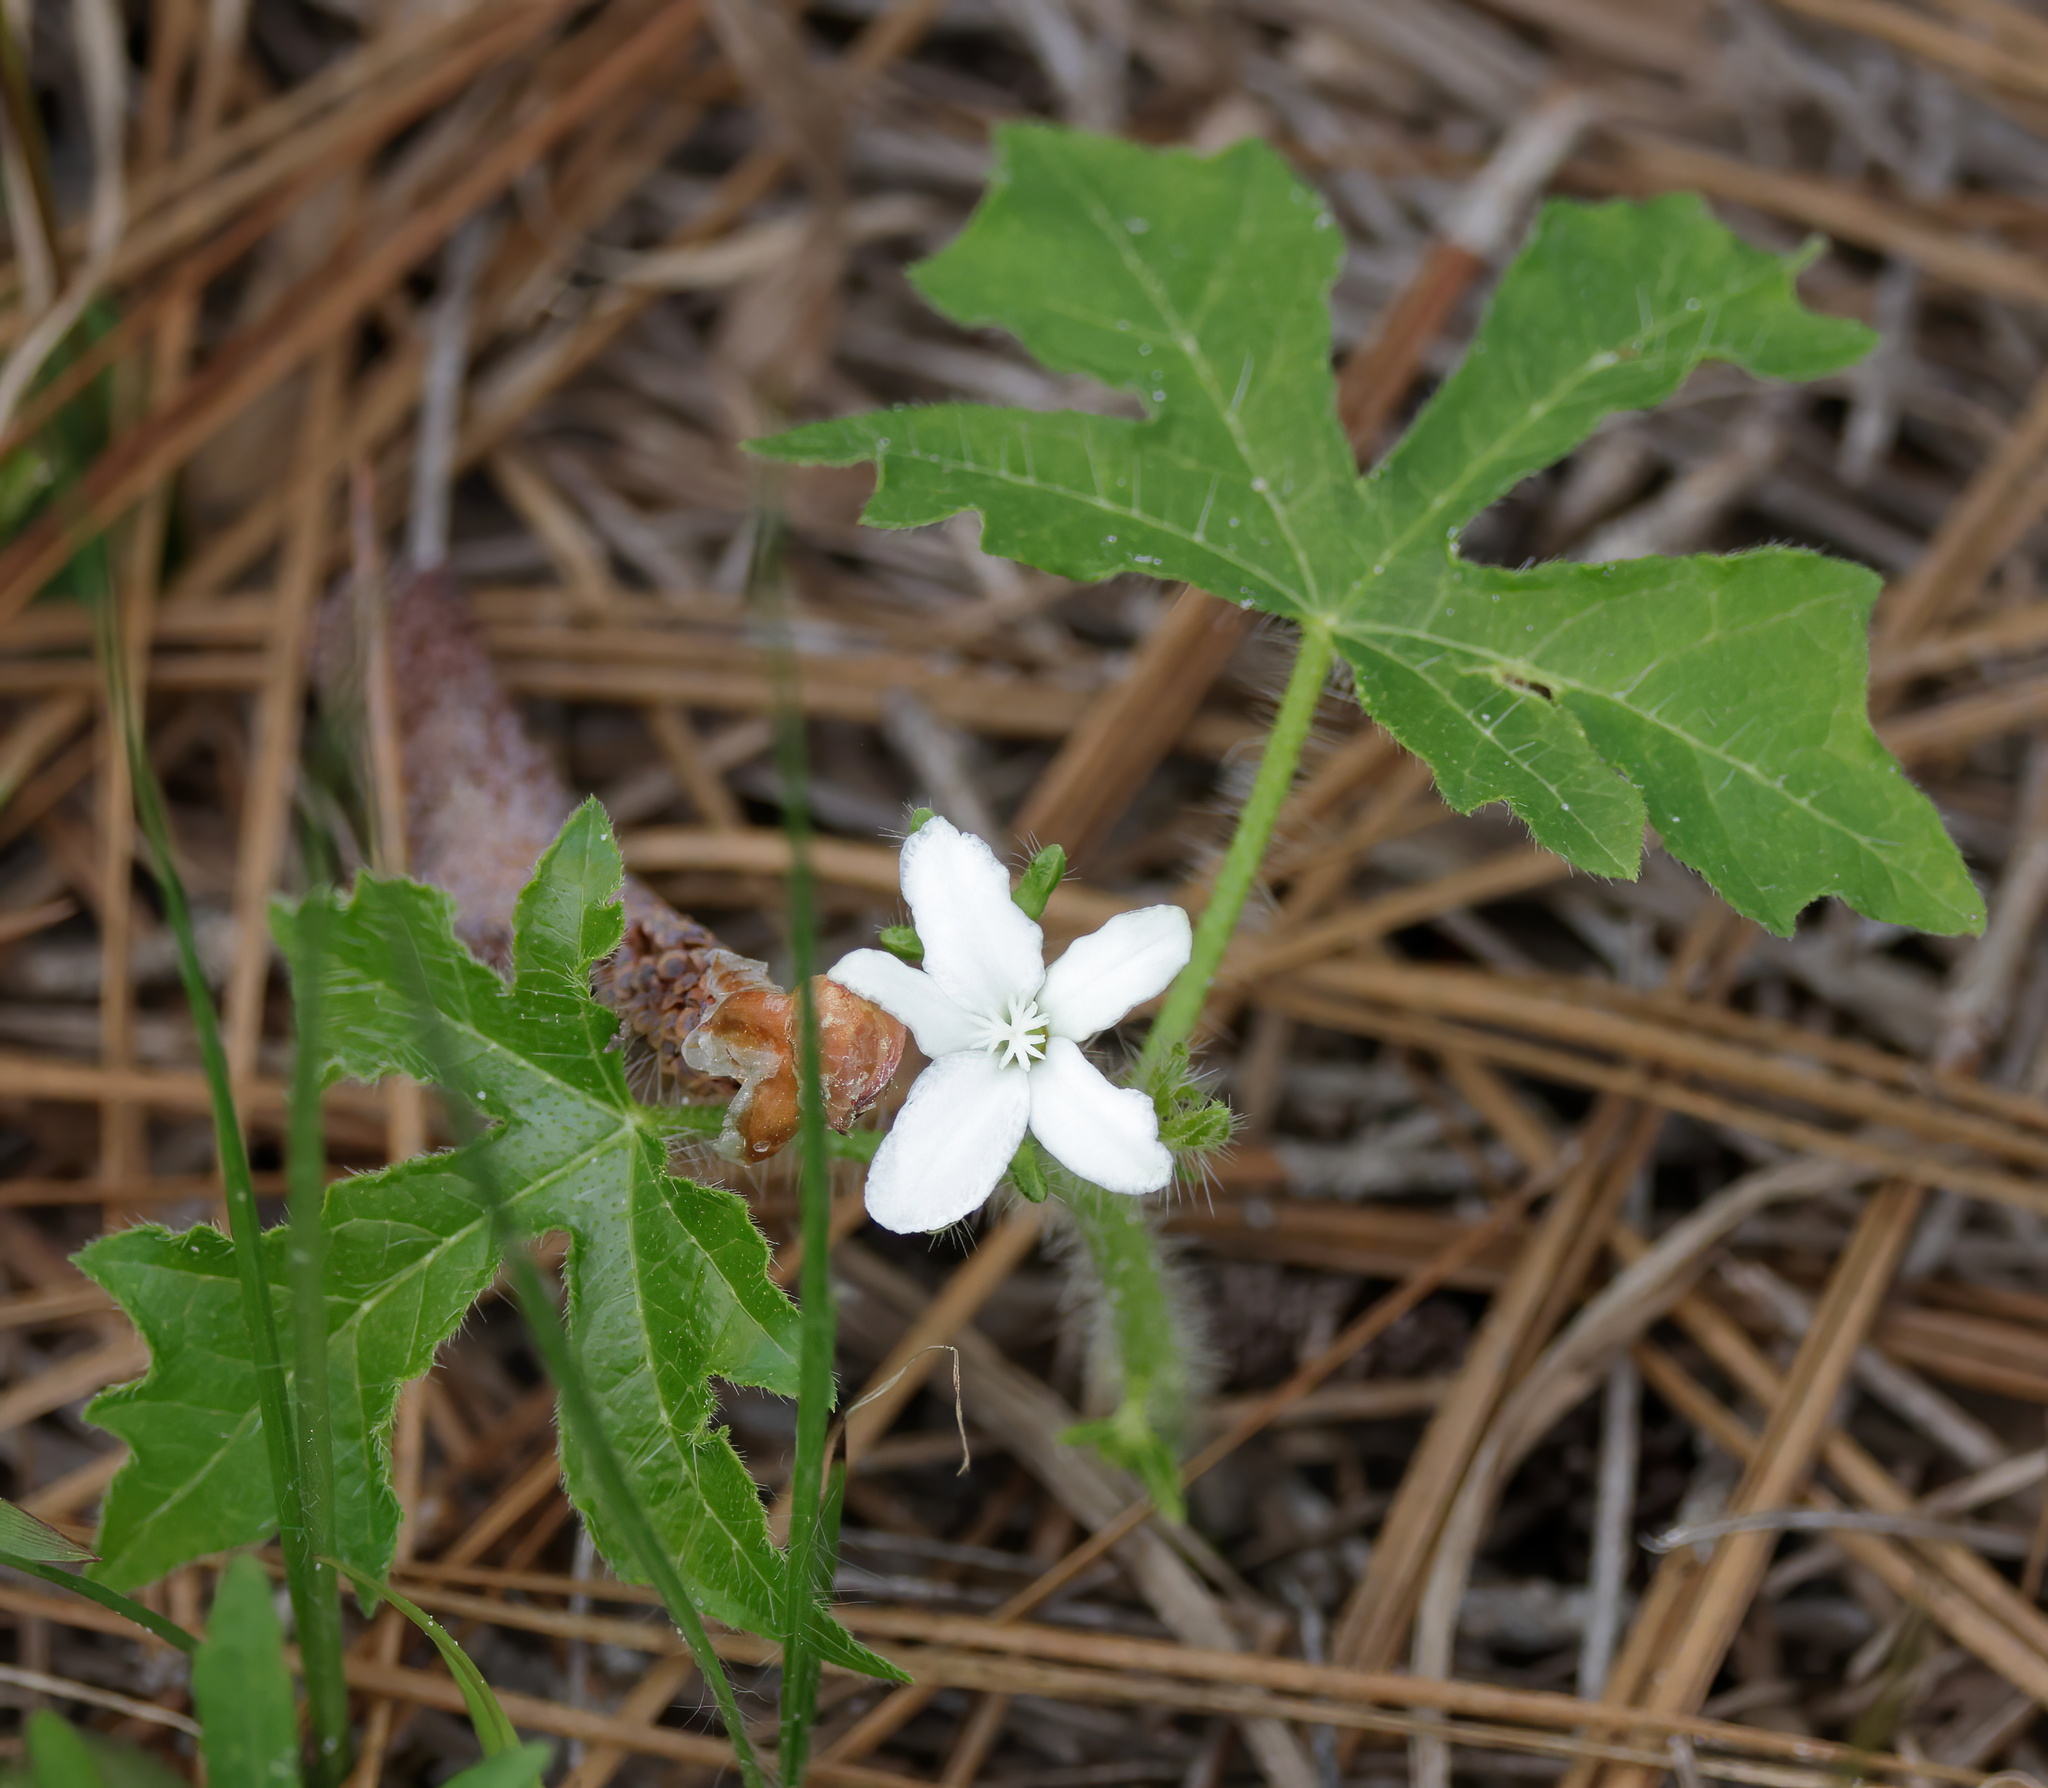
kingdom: Plantae
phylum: Tracheophyta
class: Magnoliopsida
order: Malpighiales
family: Euphorbiaceae
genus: Cnidoscolus
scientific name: Cnidoscolus stimulosus
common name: Bull-nettle
